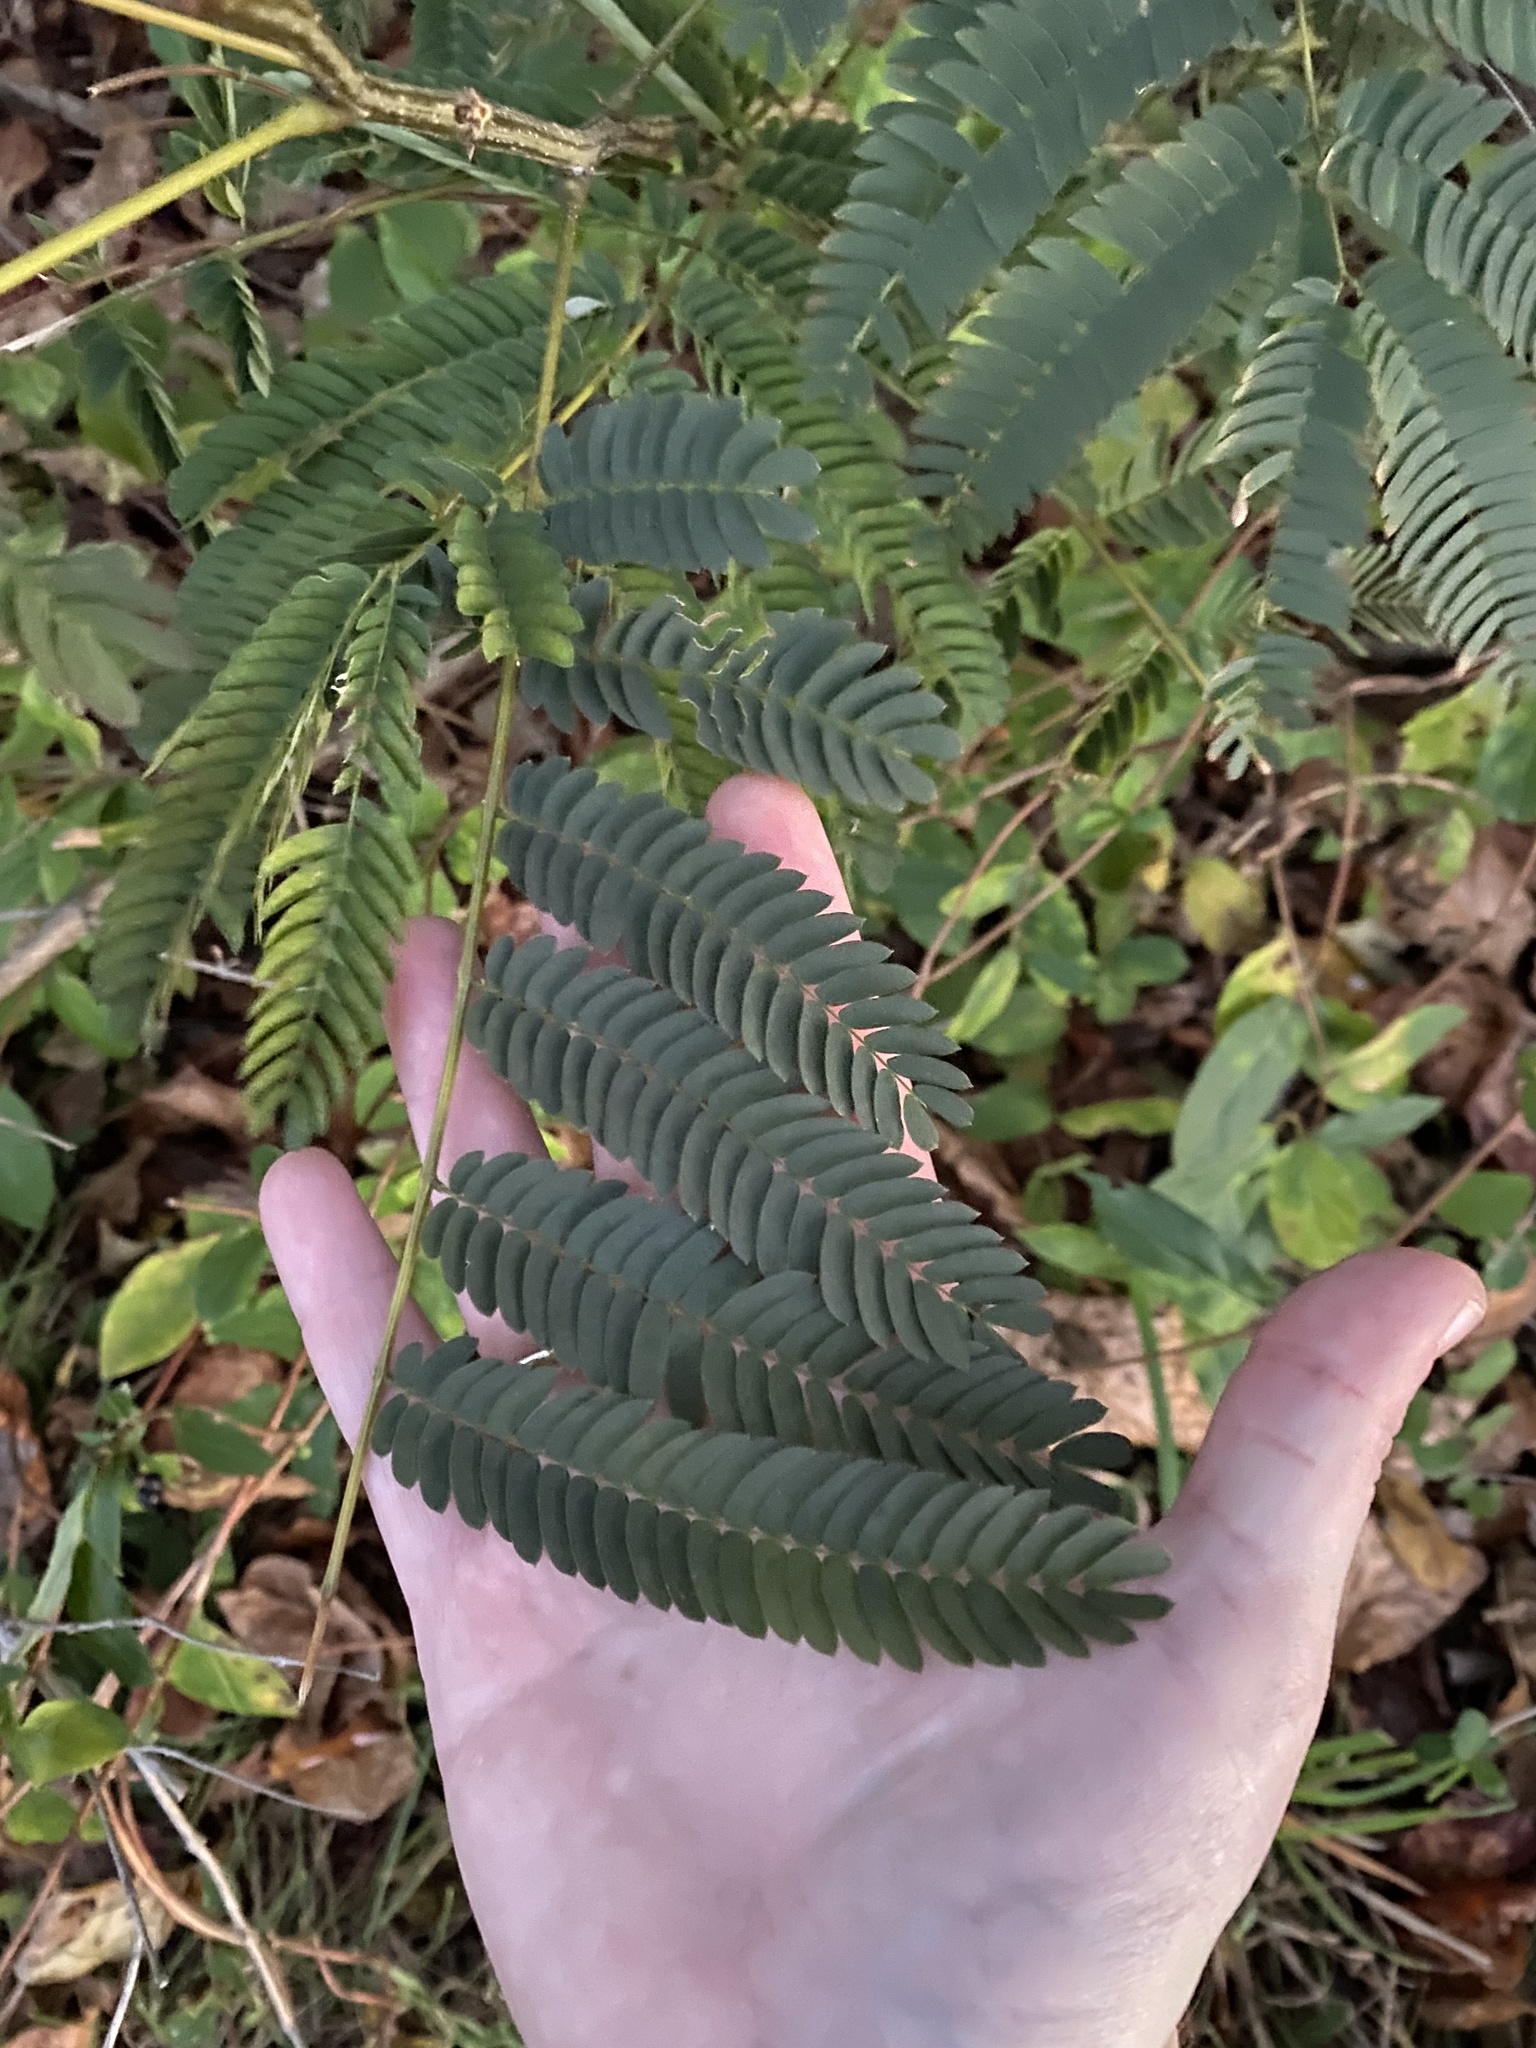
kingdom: Plantae
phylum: Tracheophyta
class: Magnoliopsida
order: Fabales
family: Fabaceae
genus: Albizia
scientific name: Albizia julibrissin
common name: Silktree
